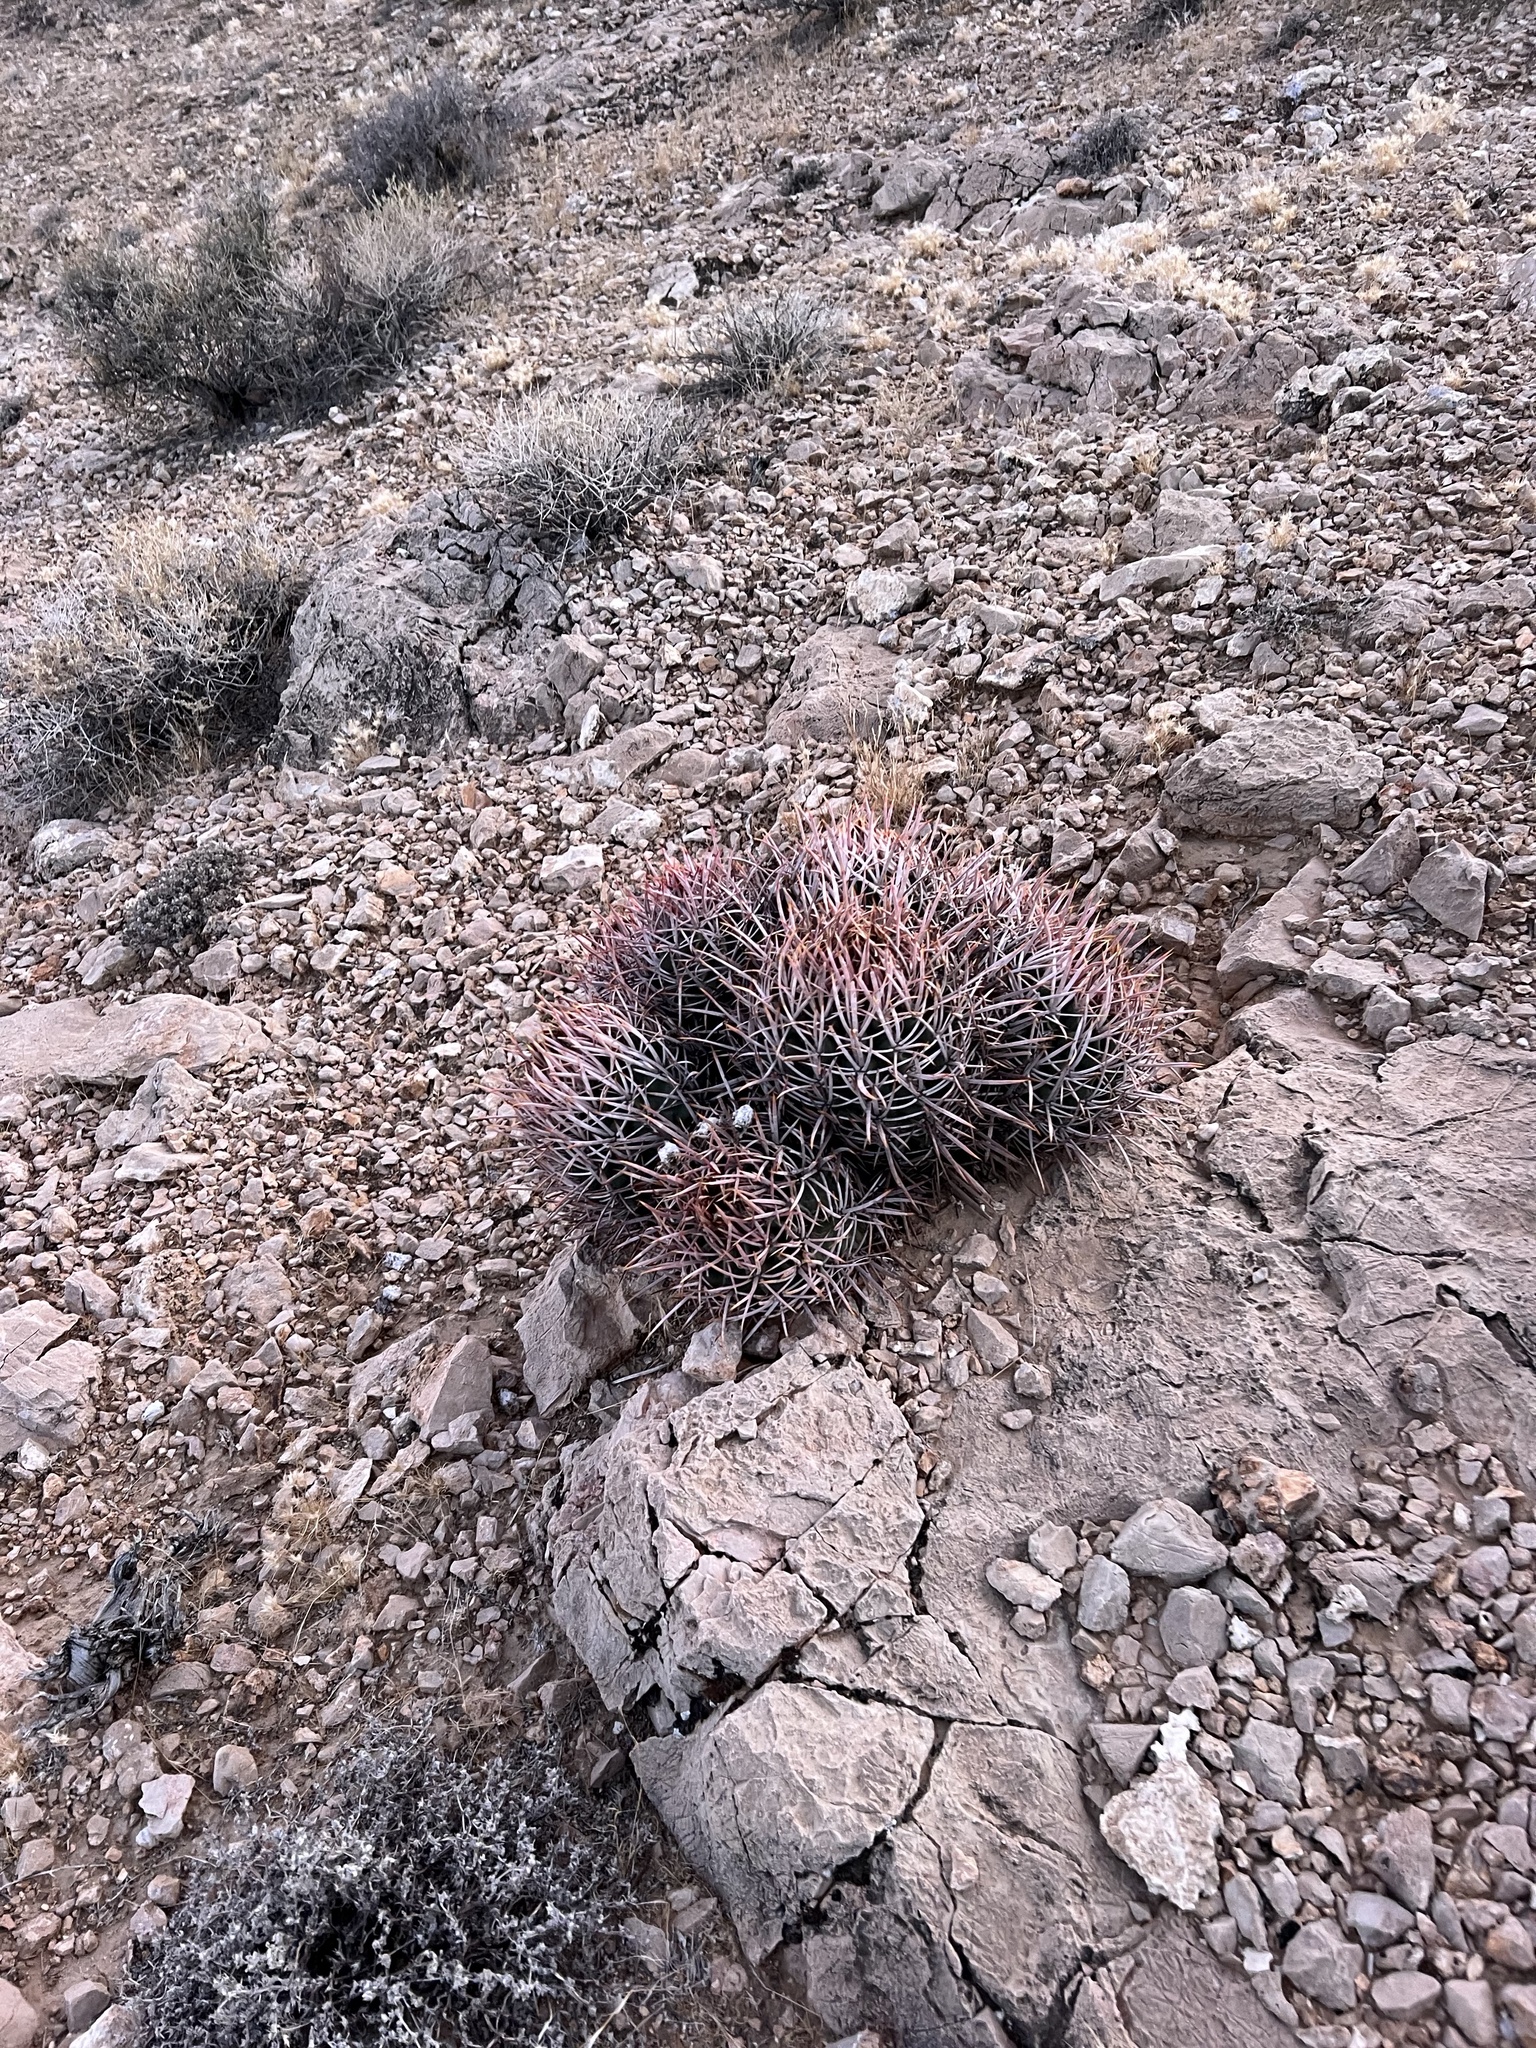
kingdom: Plantae
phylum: Tracheophyta
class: Magnoliopsida
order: Caryophyllales
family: Cactaceae
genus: Echinocactus
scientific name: Echinocactus polycephalus
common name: Cottontop cactus
